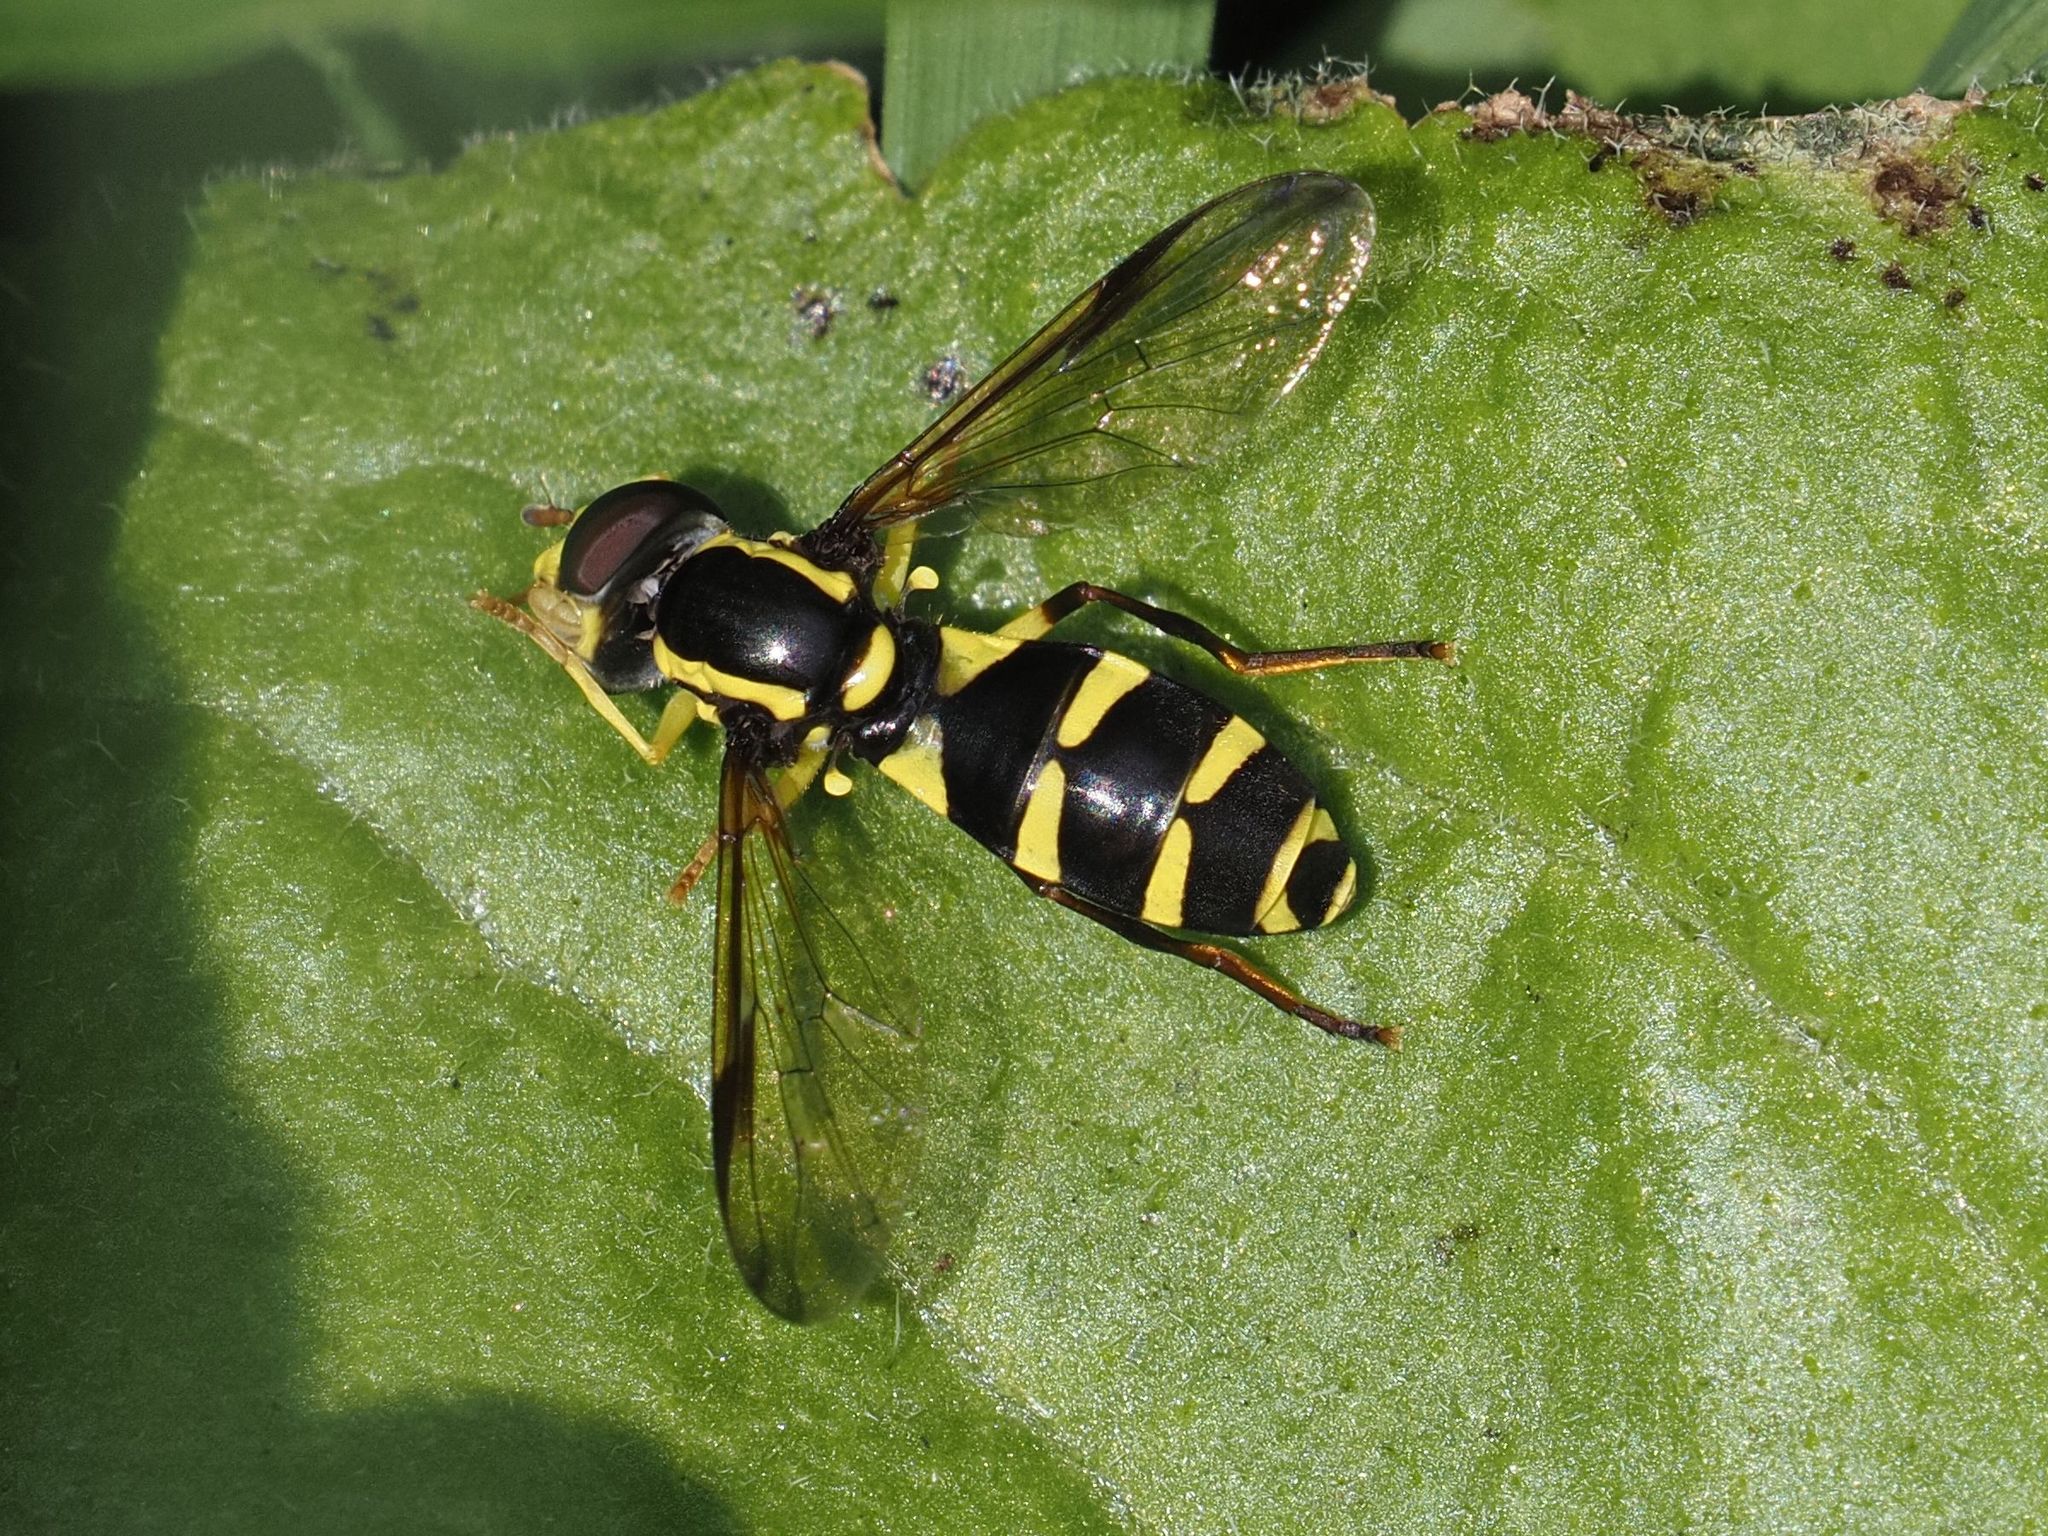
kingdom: Animalia
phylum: Arthropoda
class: Insecta
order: Diptera
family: Syrphidae
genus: Philhelius
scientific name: Philhelius dives
